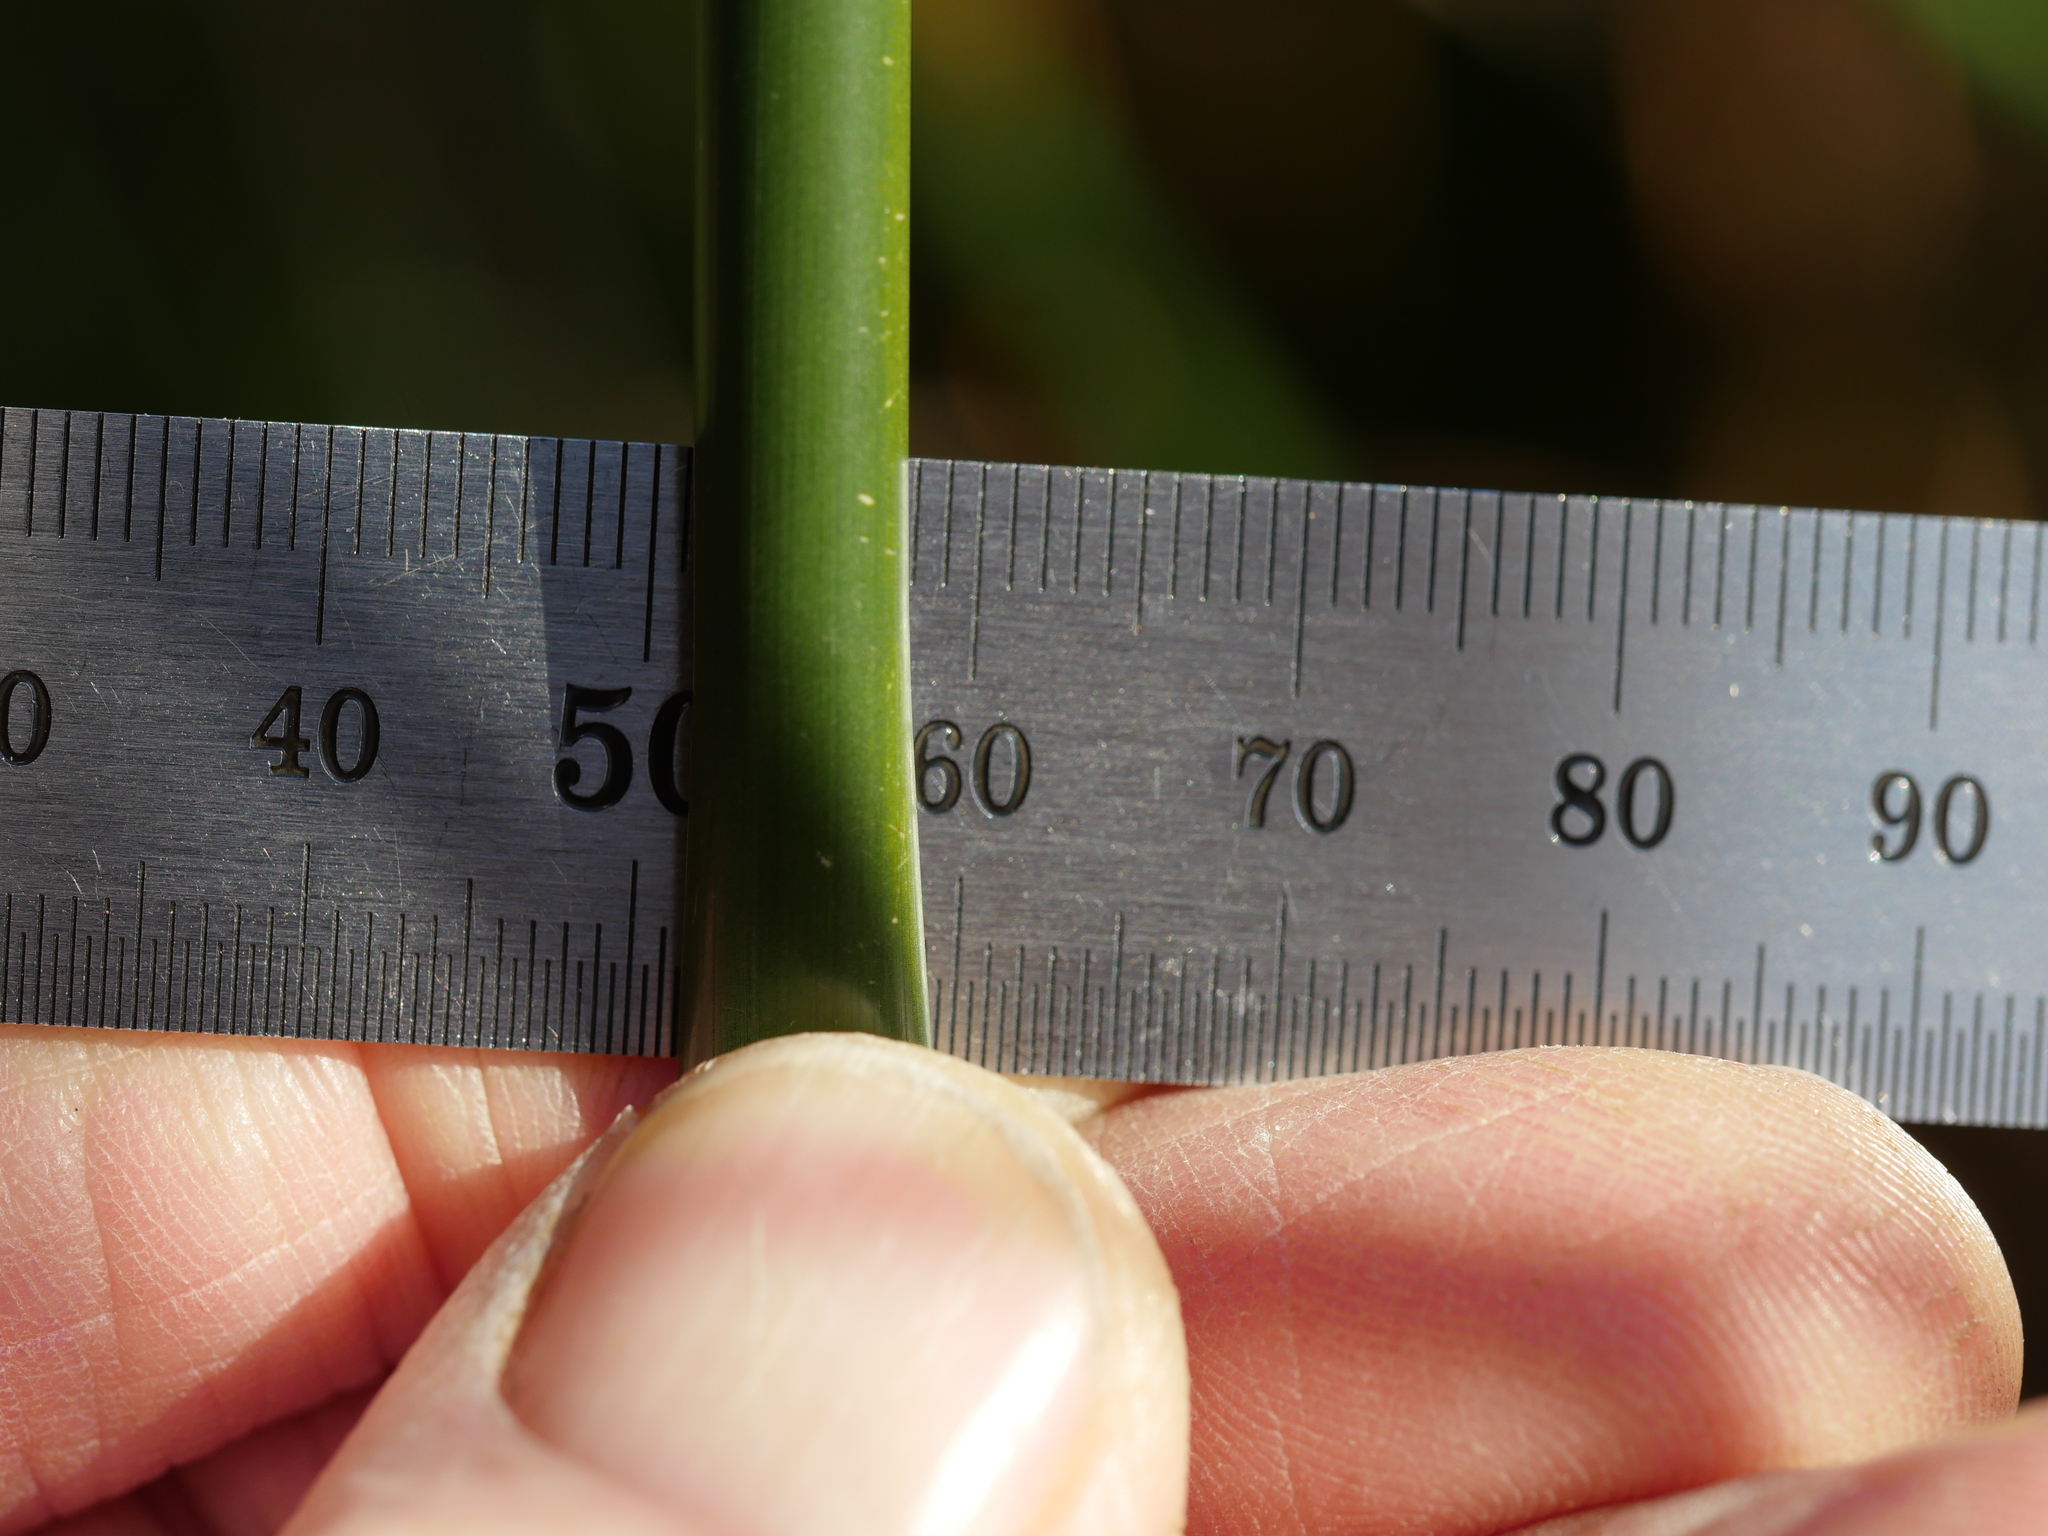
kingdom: Plantae
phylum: Tracheophyta
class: Liliopsida
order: Poales
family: Cyperaceae
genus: Machaerina
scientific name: Machaerina articulata
